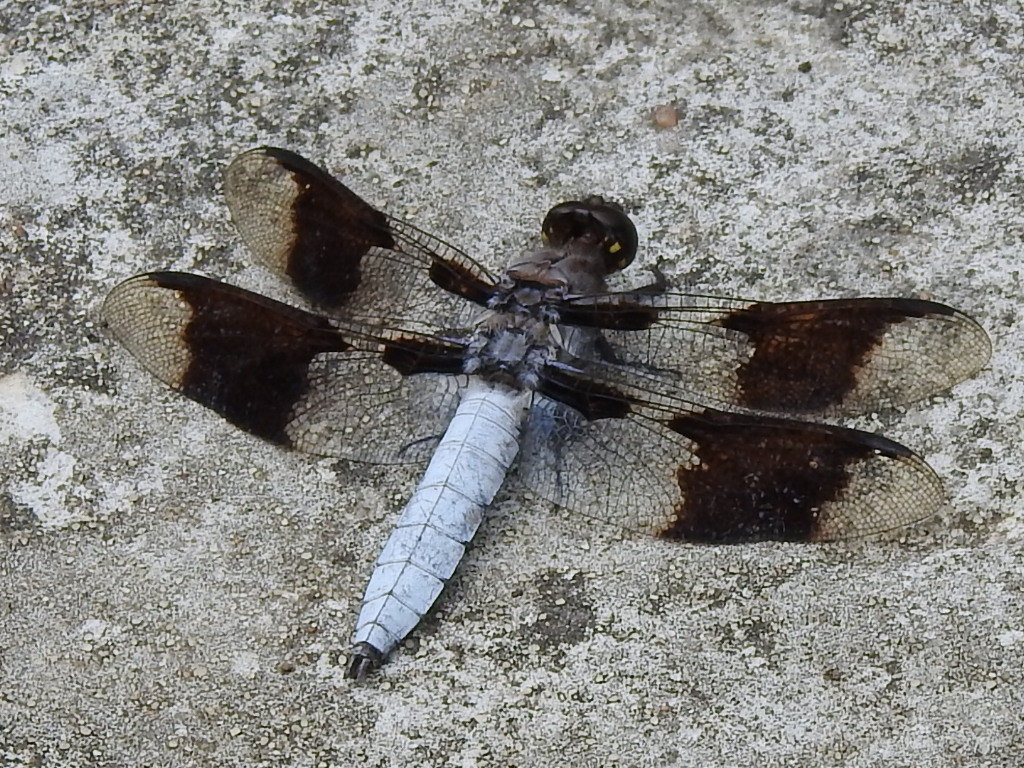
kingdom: Animalia
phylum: Arthropoda
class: Insecta
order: Odonata
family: Libellulidae
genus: Plathemis
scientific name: Plathemis lydia
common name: Common whitetail
